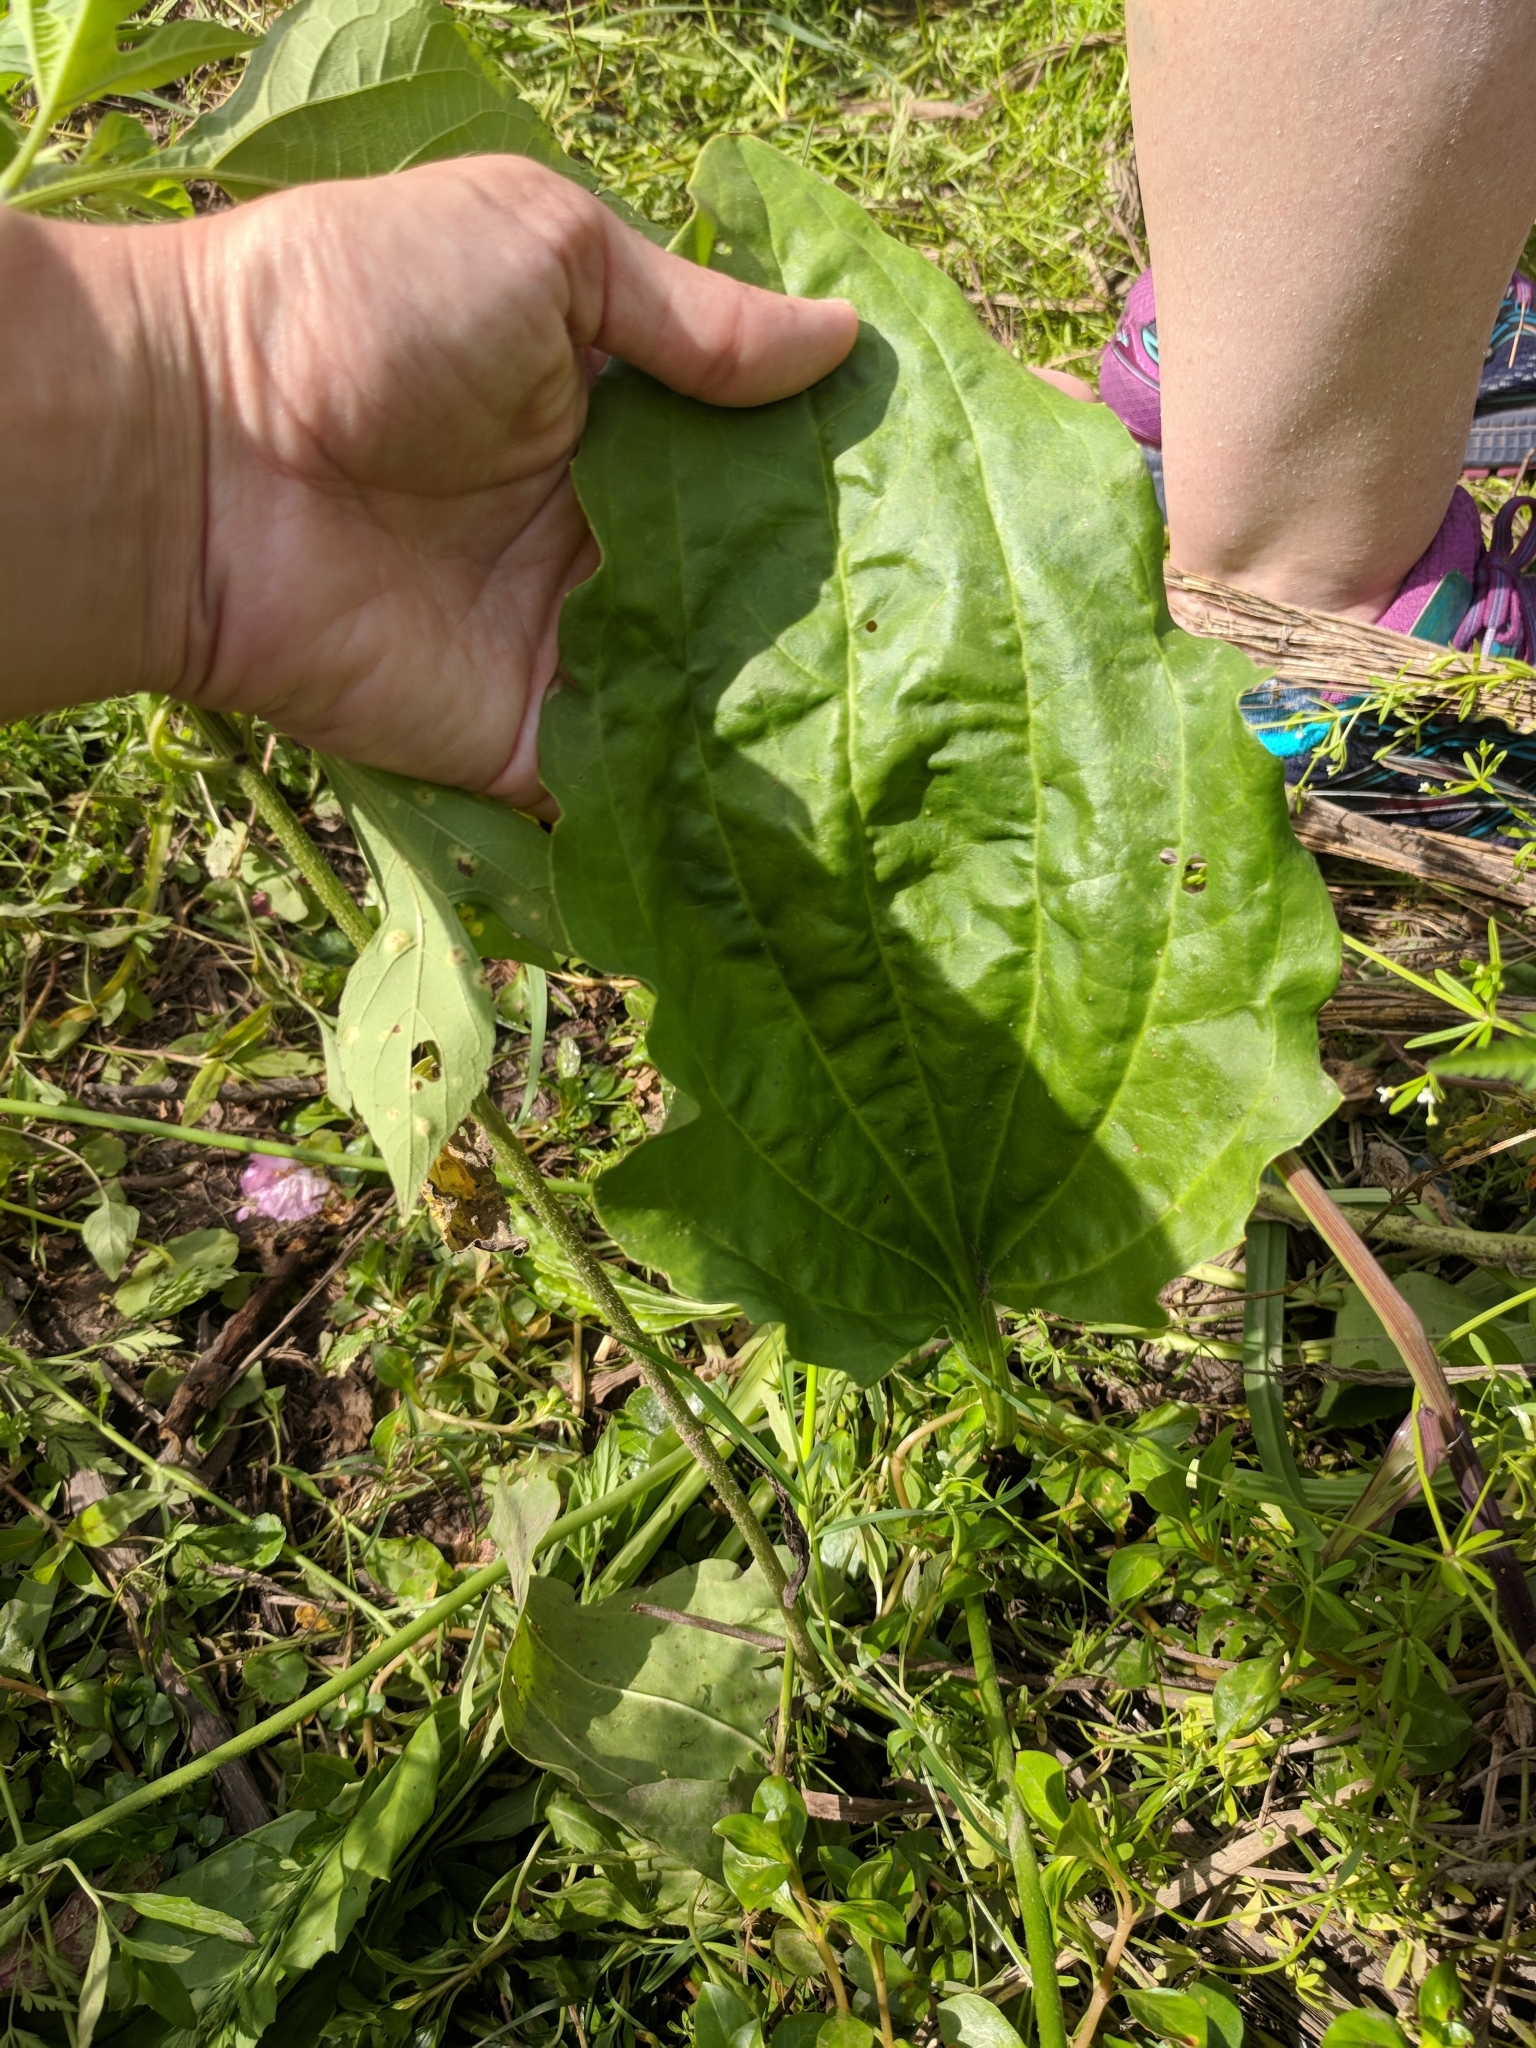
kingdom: Plantae
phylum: Tracheophyta
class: Magnoliopsida
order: Lamiales
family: Plantaginaceae
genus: Plantago
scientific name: Plantago major
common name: Common plantain
